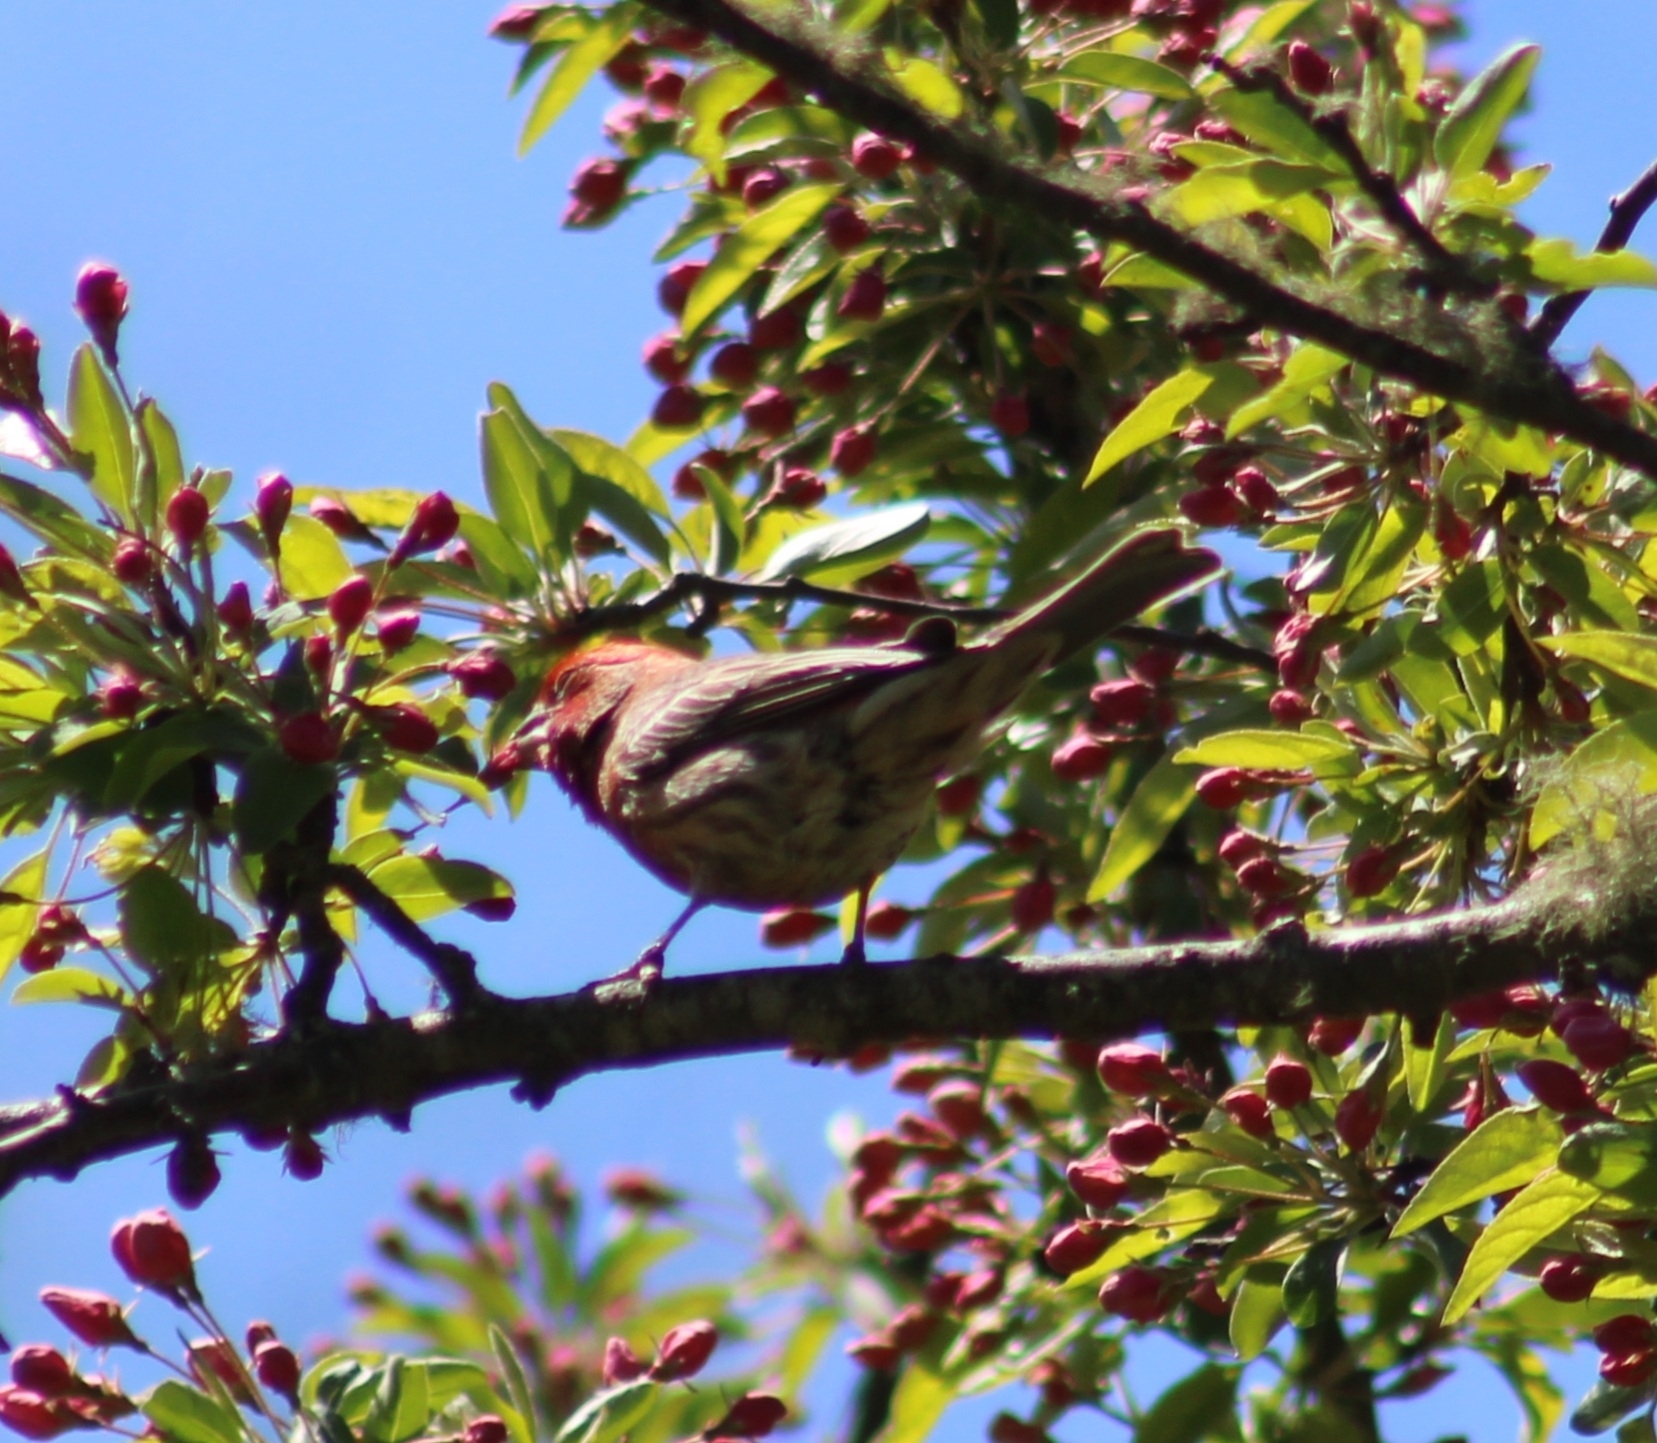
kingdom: Animalia
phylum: Chordata
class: Aves
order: Passeriformes
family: Fringillidae
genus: Haemorhous
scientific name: Haemorhous mexicanus
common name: House finch
